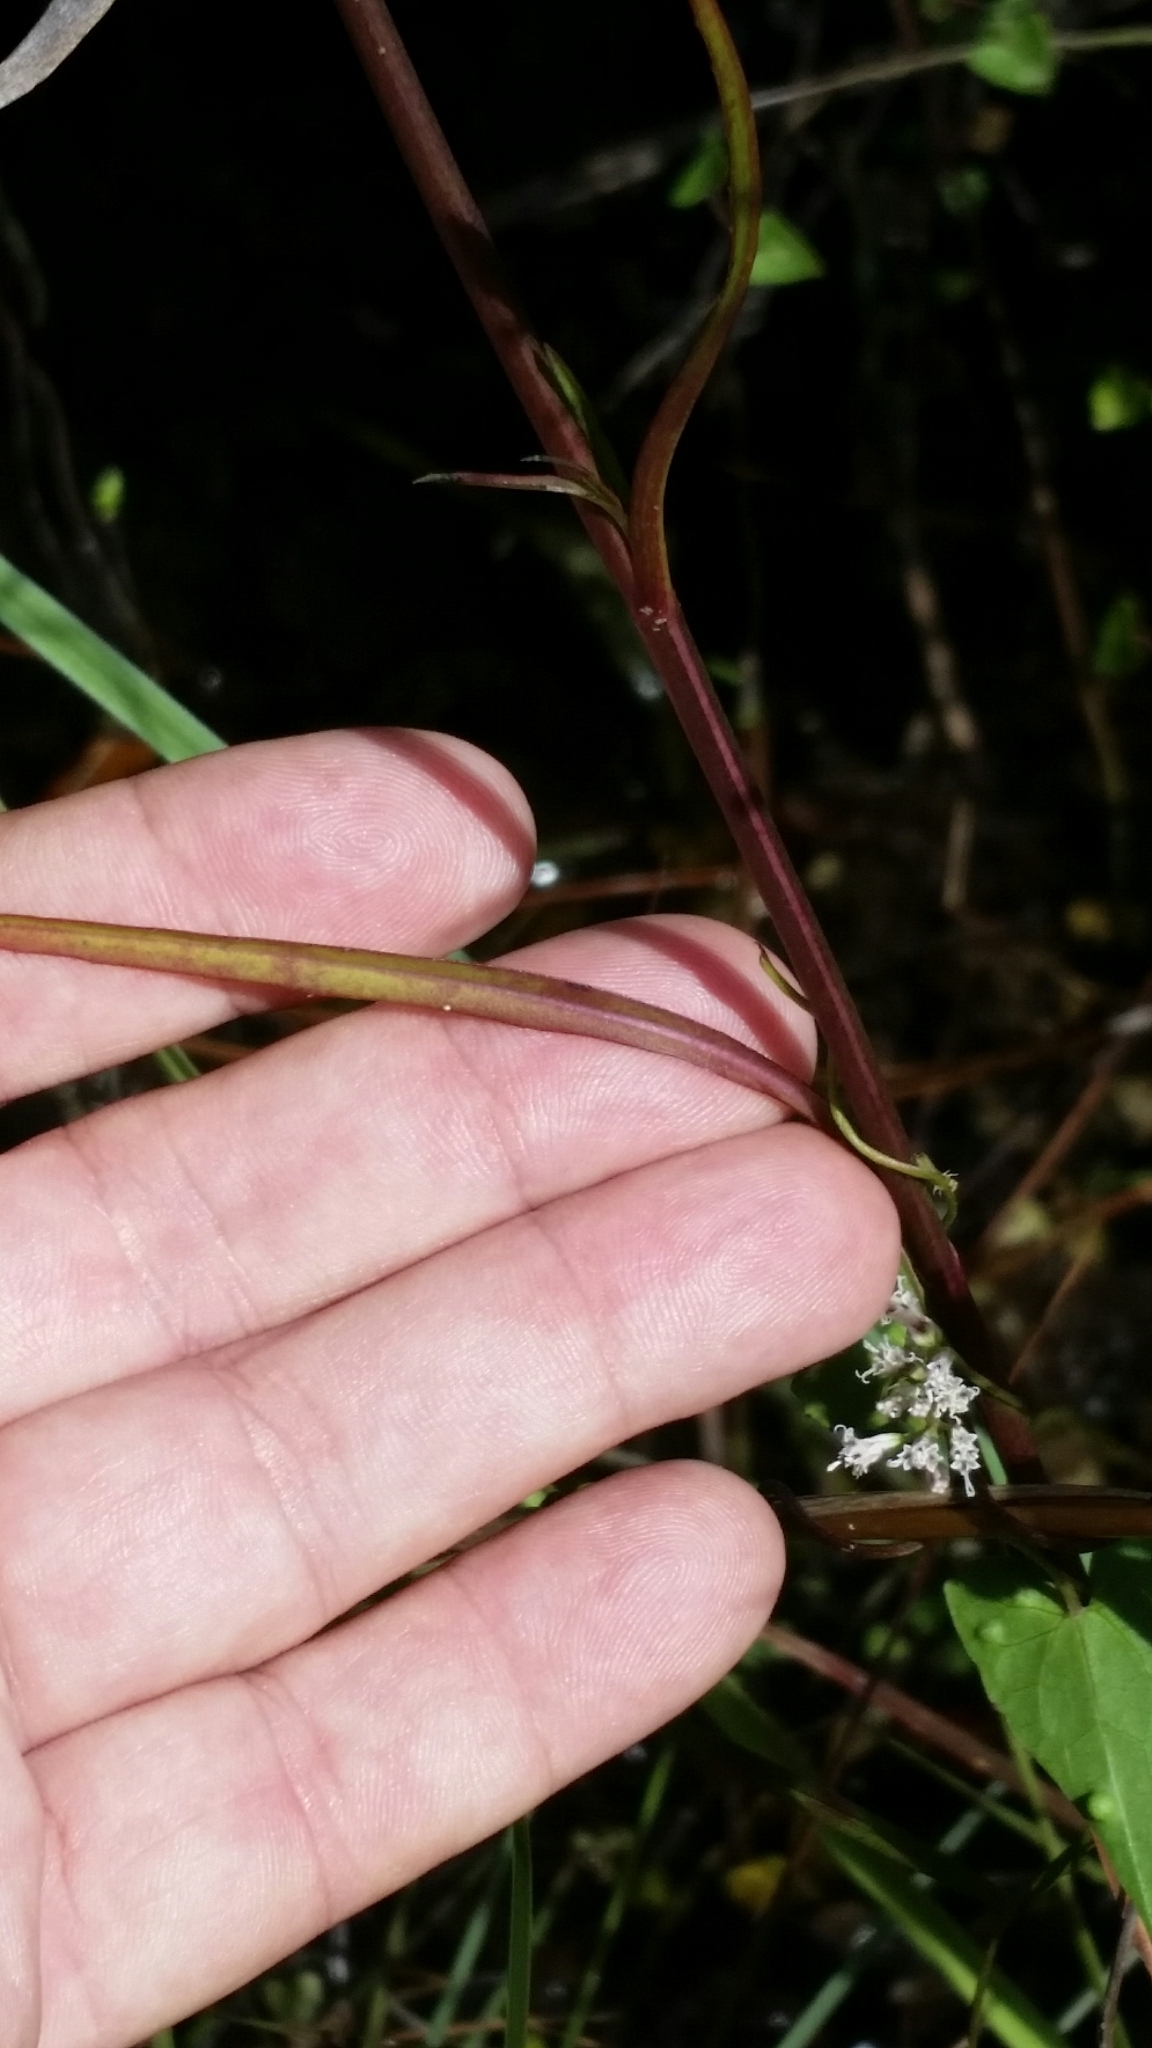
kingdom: Plantae
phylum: Tracheophyta
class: Magnoliopsida
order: Asterales
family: Asteraceae
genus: Symphyotrichum
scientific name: Symphyotrichum subulatum
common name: Annual saltmarsh aster
